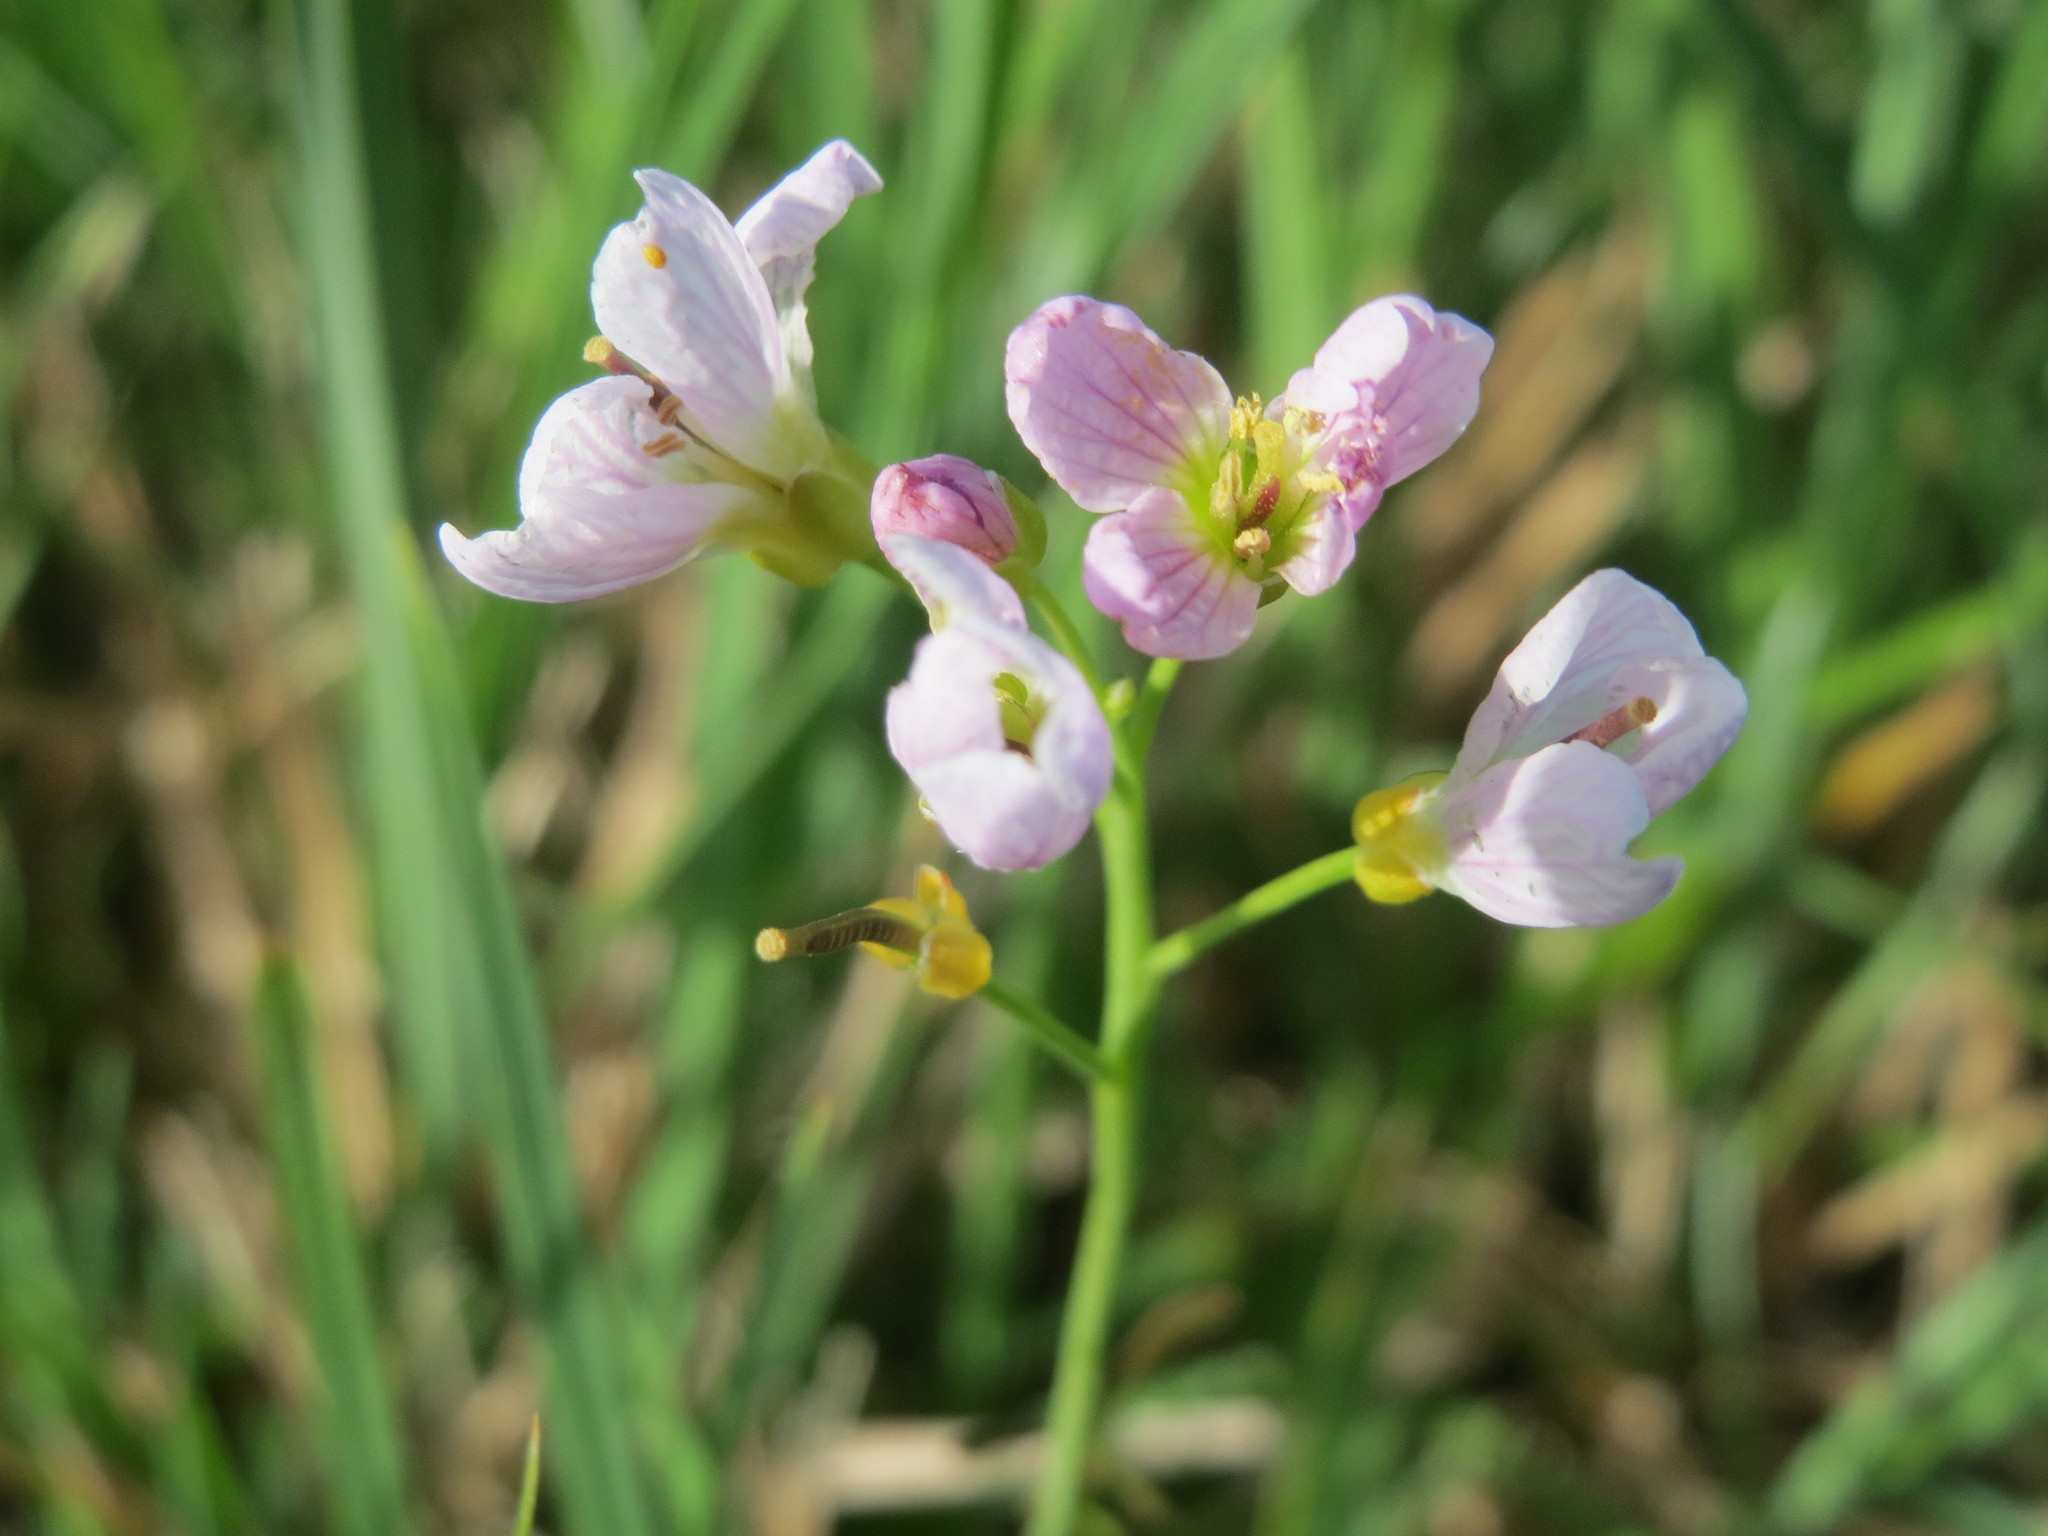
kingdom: Plantae
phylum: Tracheophyta
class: Magnoliopsida
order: Brassicales
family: Brassicaceae
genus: Cardamine
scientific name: Cardamine pratensis
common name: Cuckoo flower
